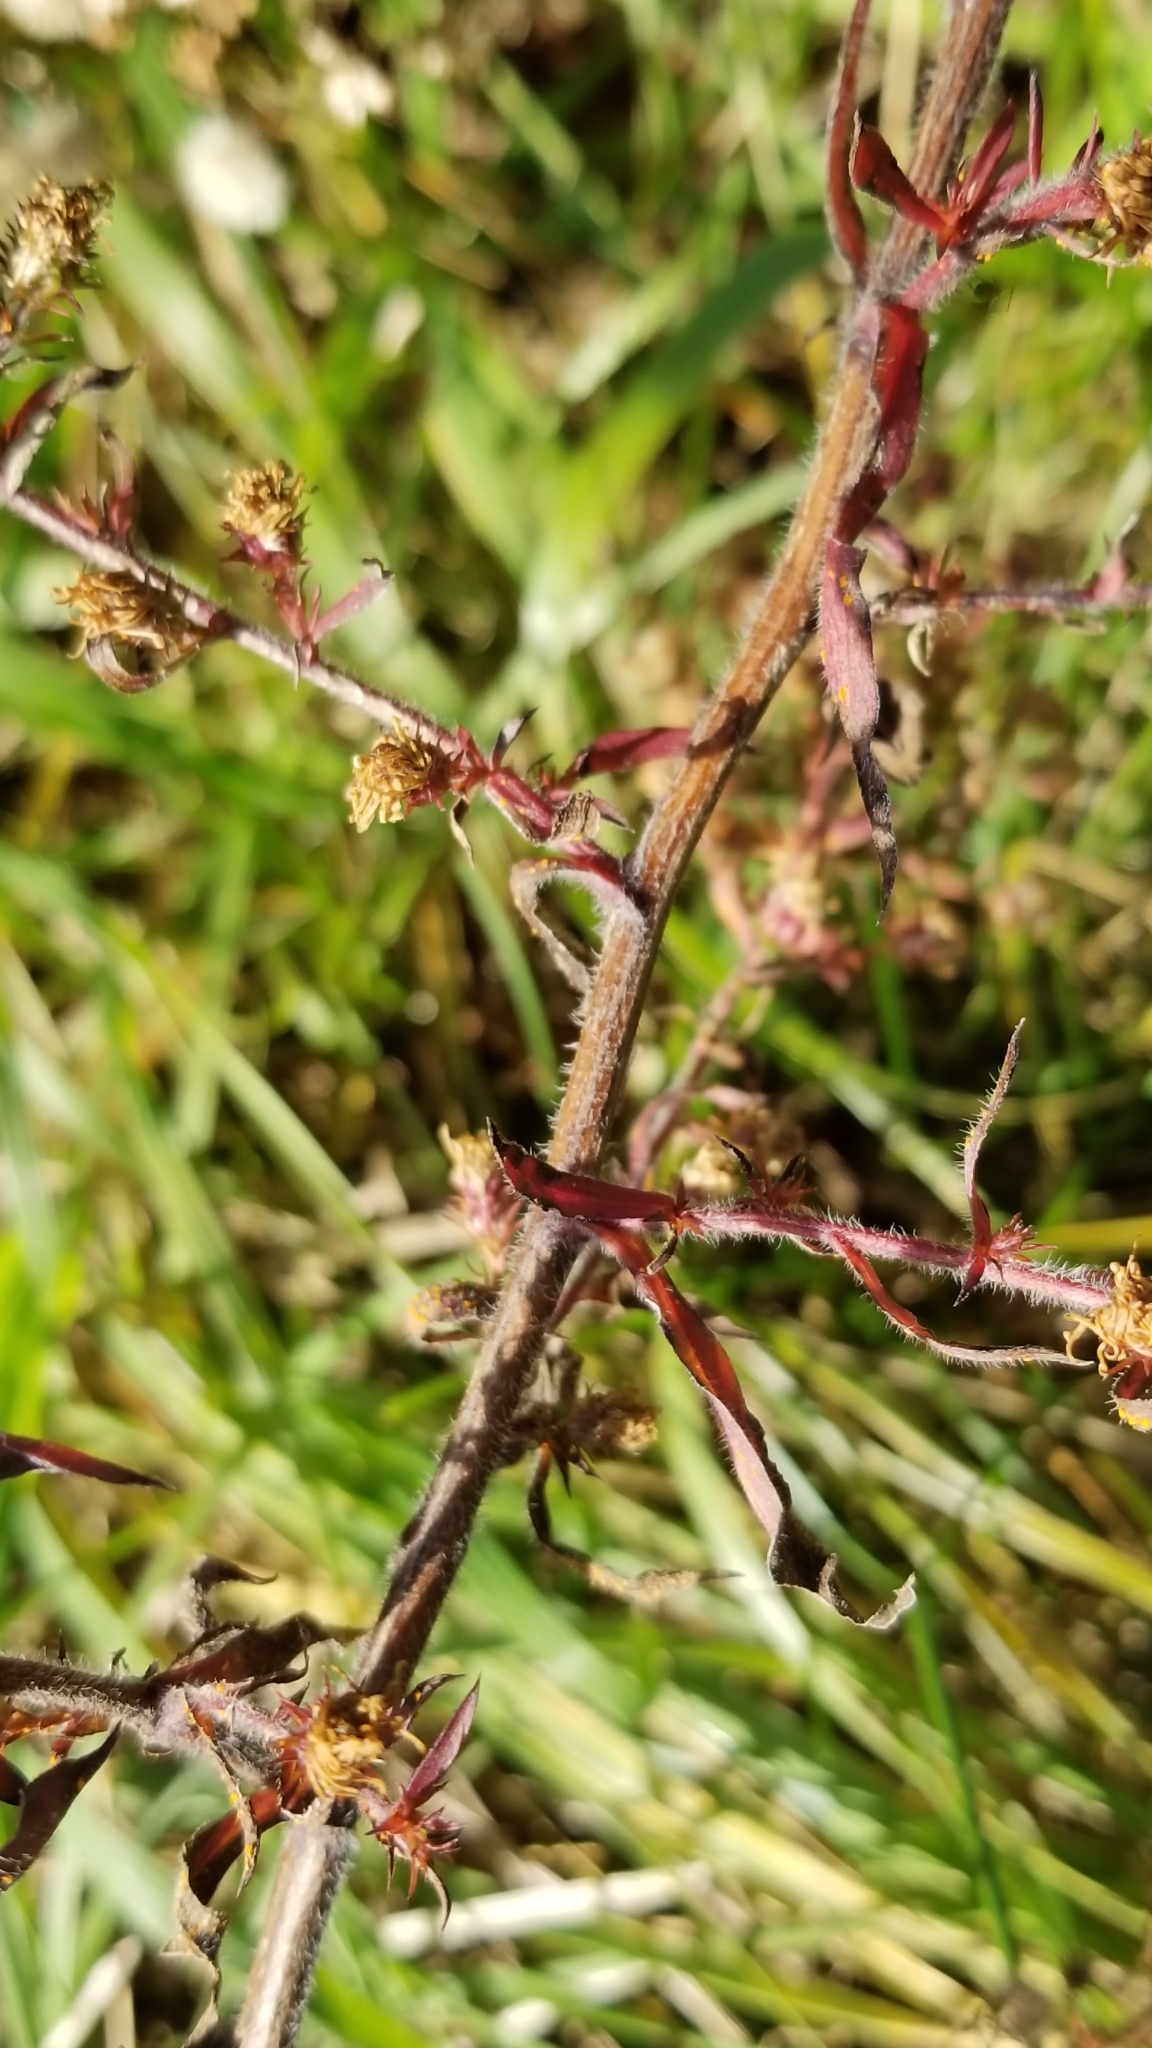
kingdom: Plantae
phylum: Tracheophyta
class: Magnoliopsida
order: Asterales
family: Asteraceae
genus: Symphyotrichum
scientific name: Symphyotrichum pilosum
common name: Awl aster
